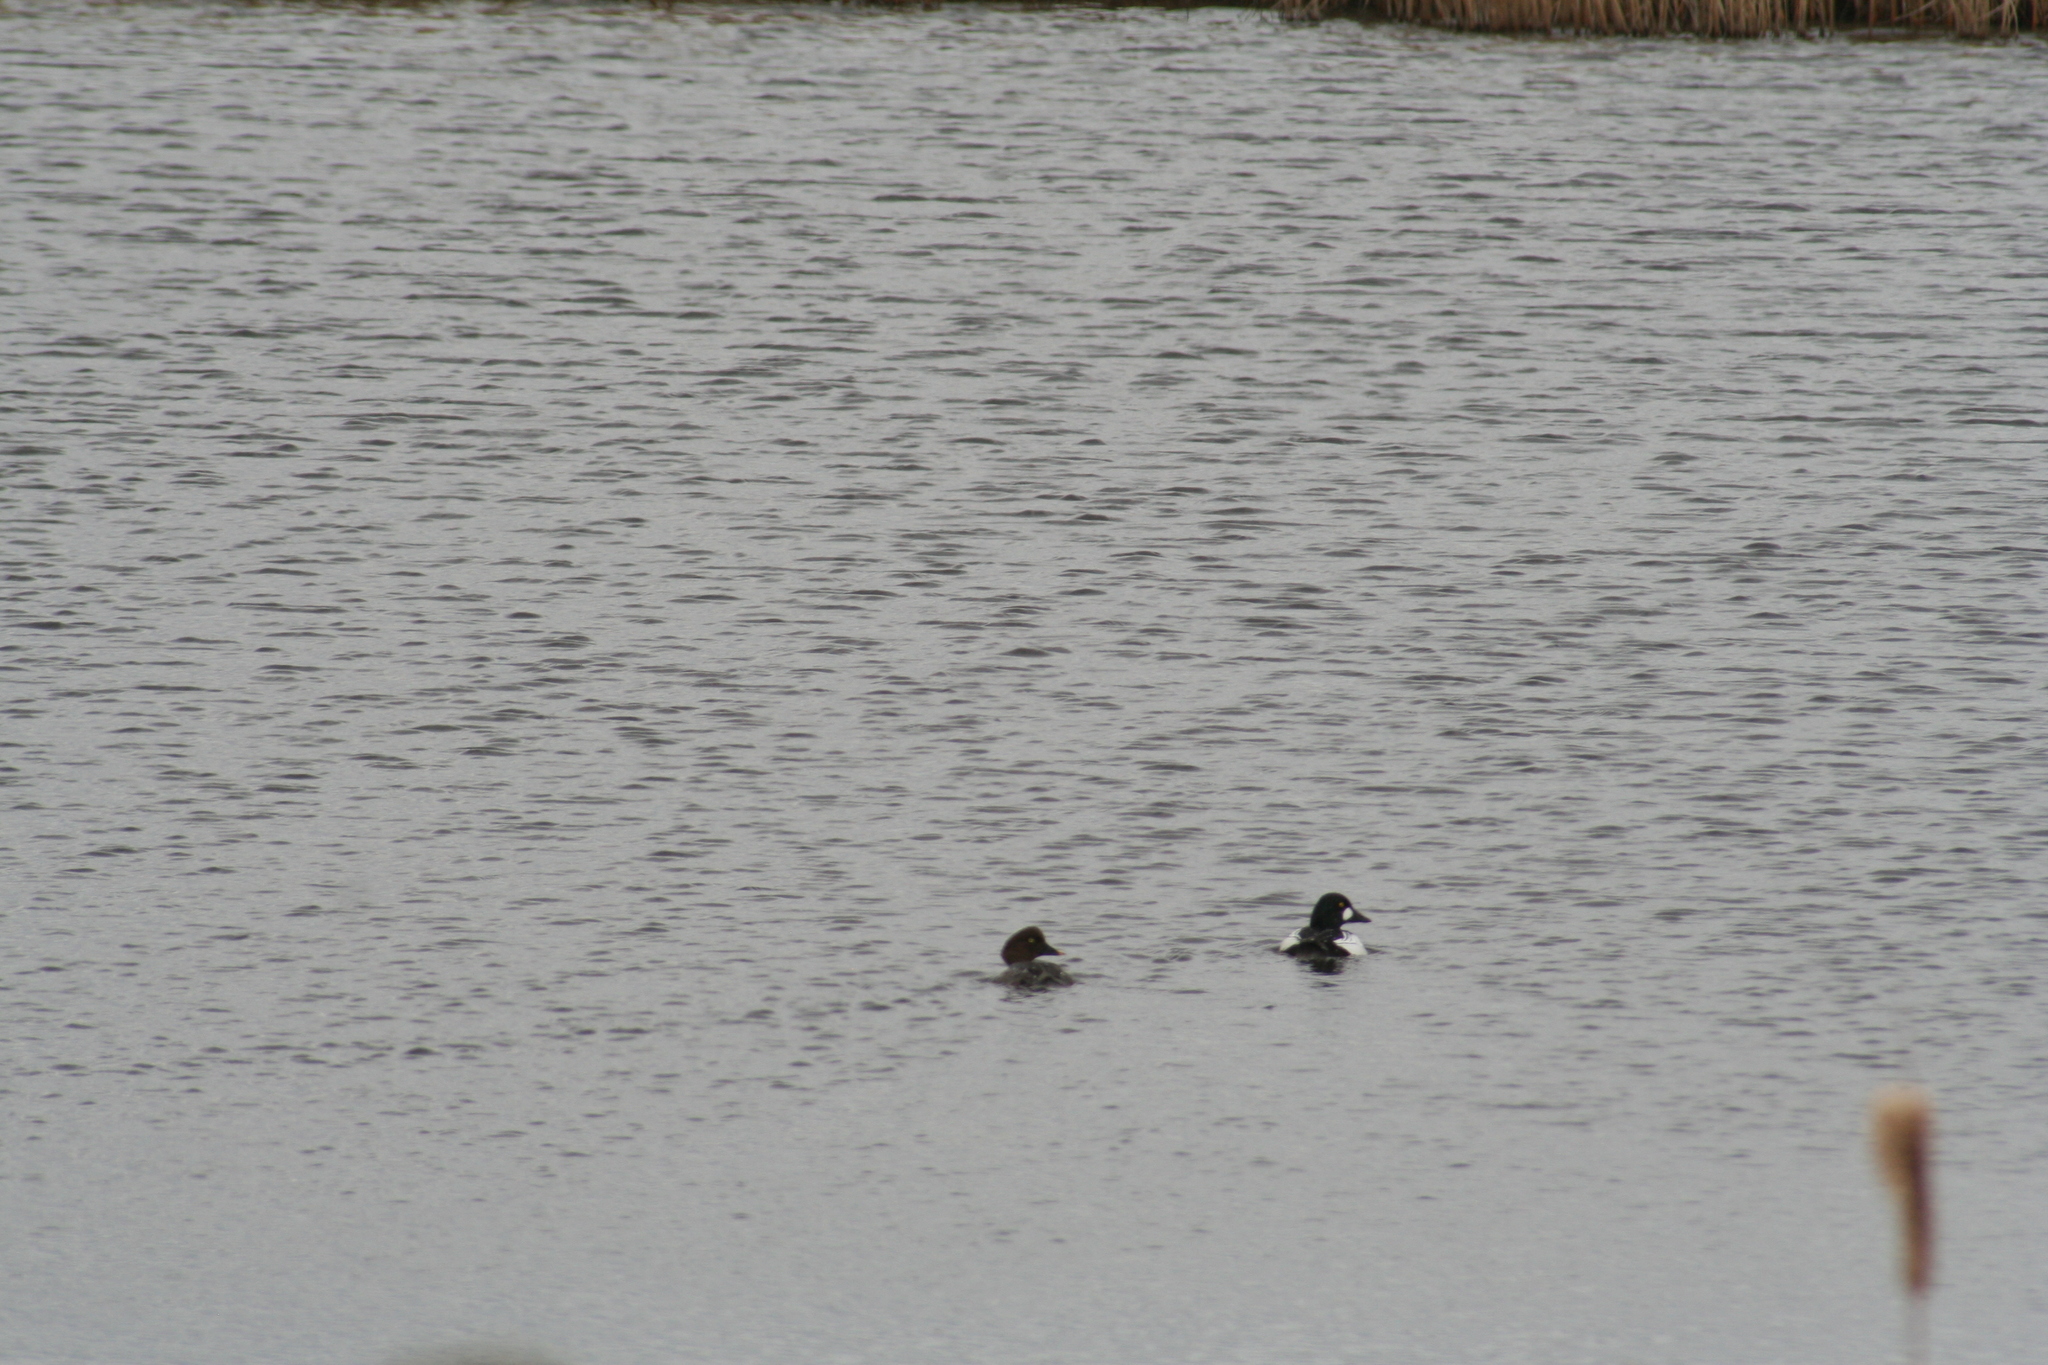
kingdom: Animalia
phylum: Chordata
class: Aves
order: Anseriformes
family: Anatidae
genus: Bucephala
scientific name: Bucephala clangula
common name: Common goldeneye
